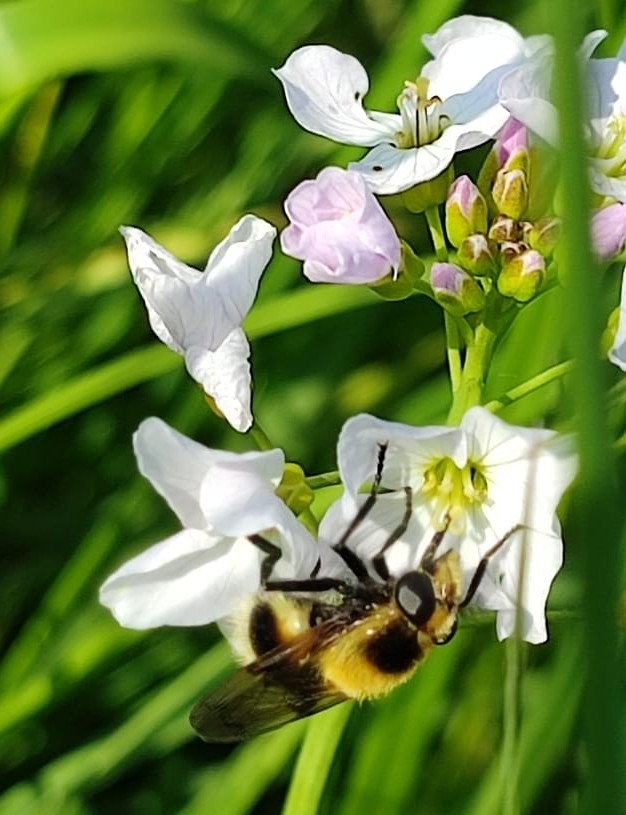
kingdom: Animalia
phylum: Arthropoda
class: Insecta
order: Diptera
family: Syrphidae
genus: Volucella
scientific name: Volucella bombylans
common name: Bumble bee hover fly
